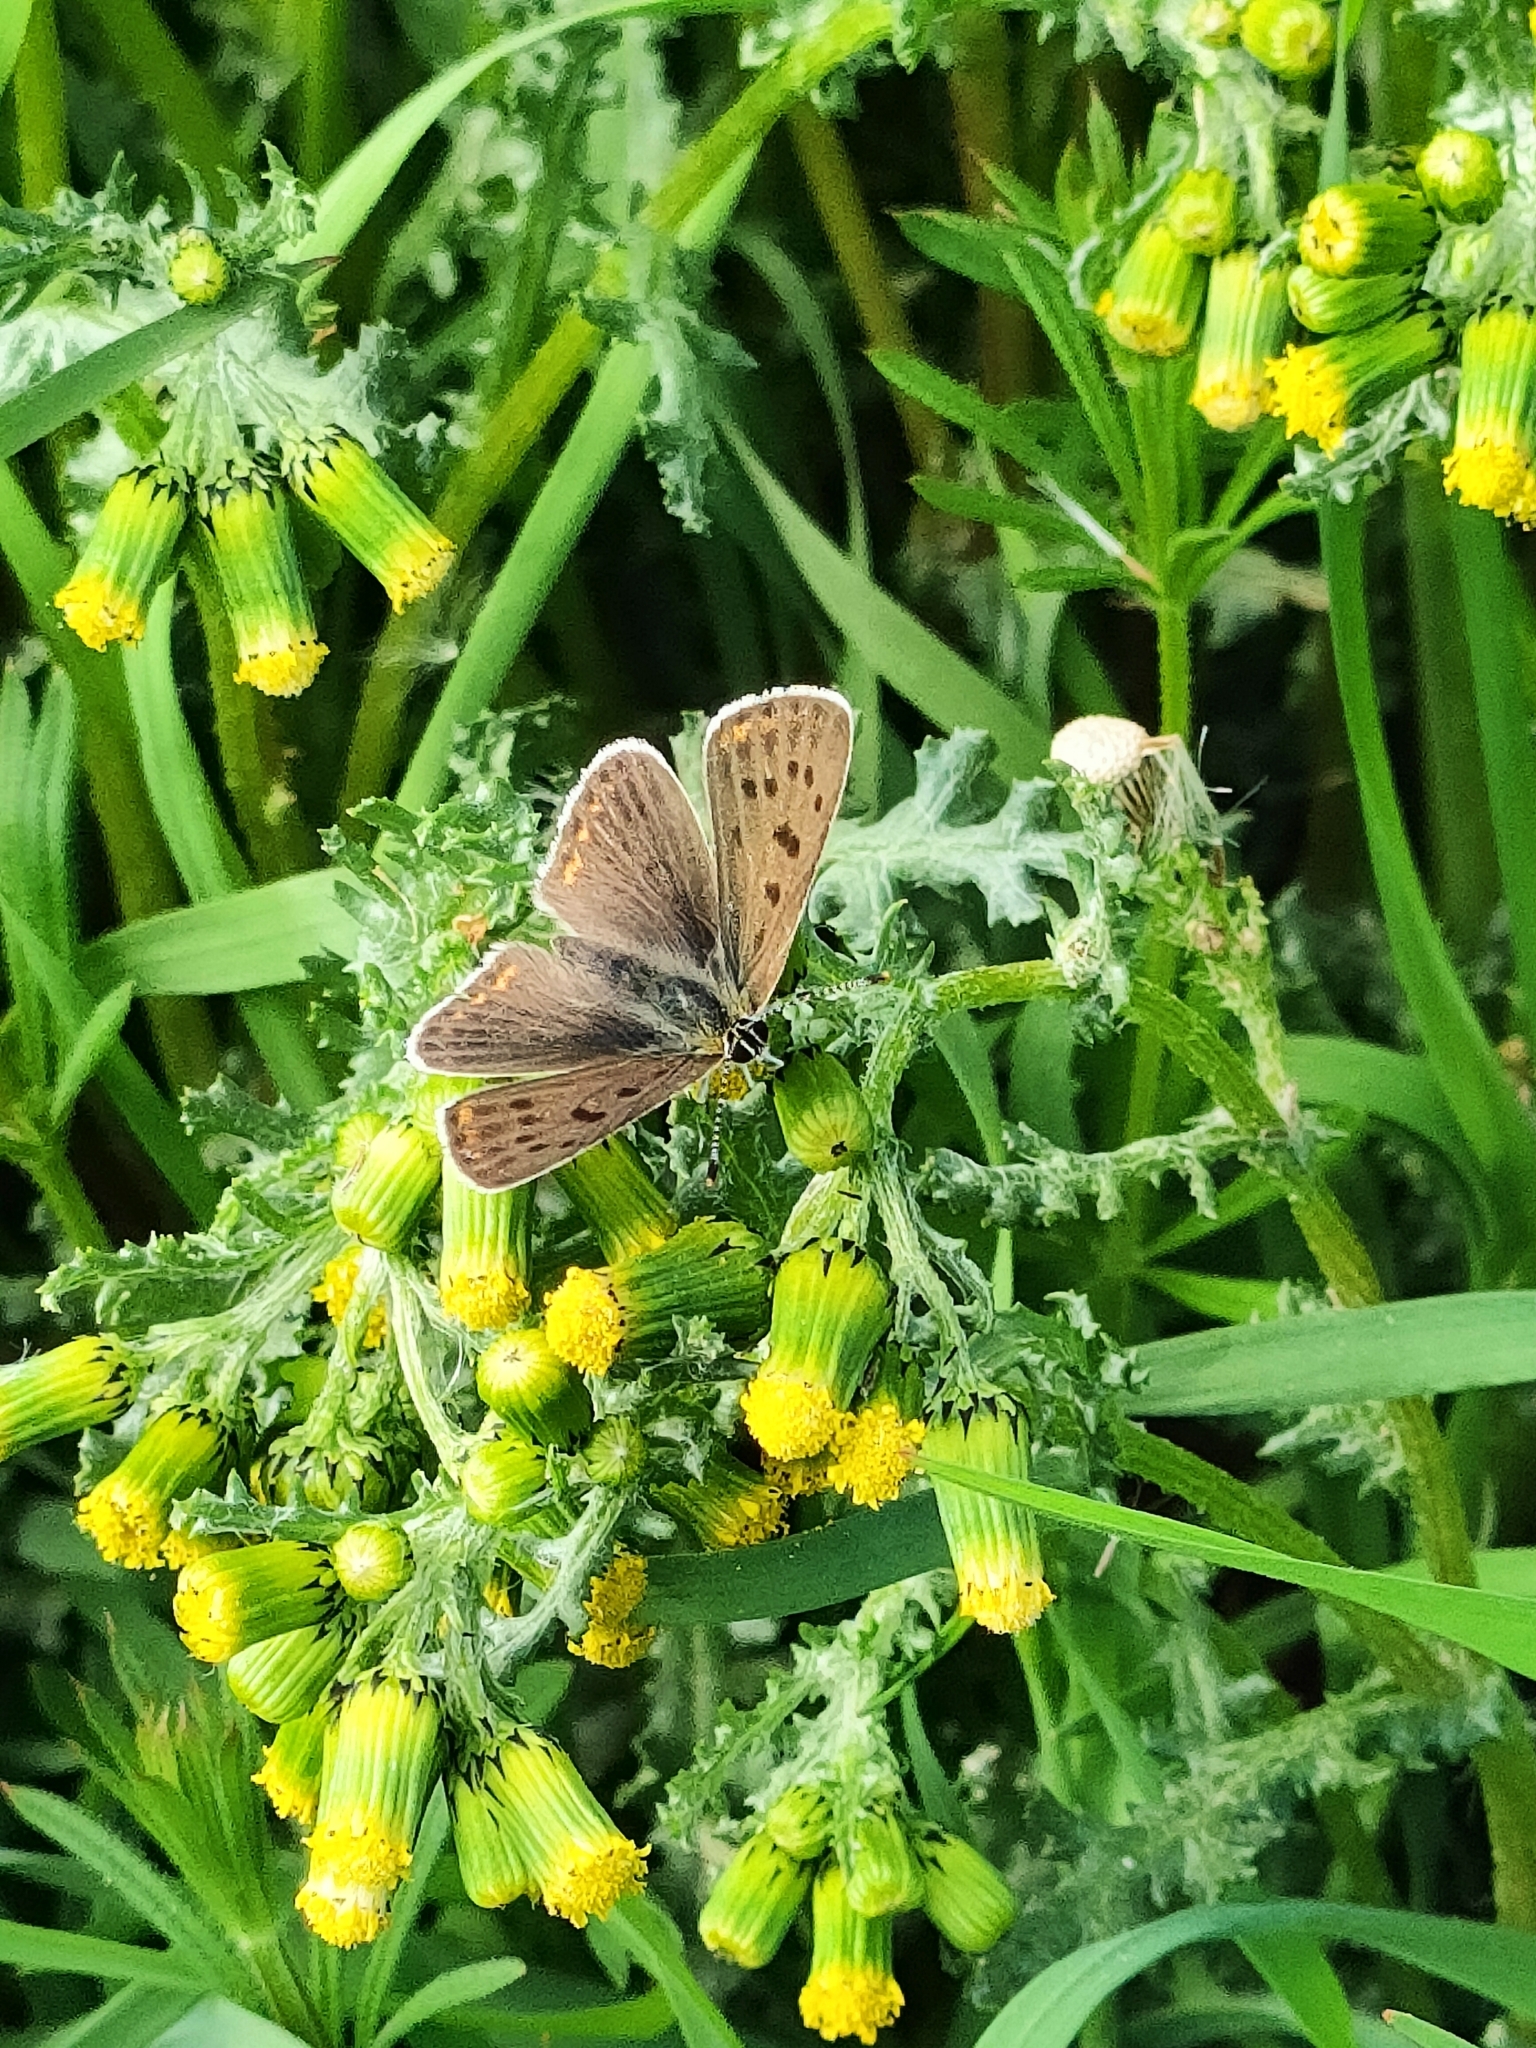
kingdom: Animalia
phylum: Arthropoda
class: Insecta
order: Lepidoptera
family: Lycaenidae
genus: Loweia
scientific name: Loweia tityrus
